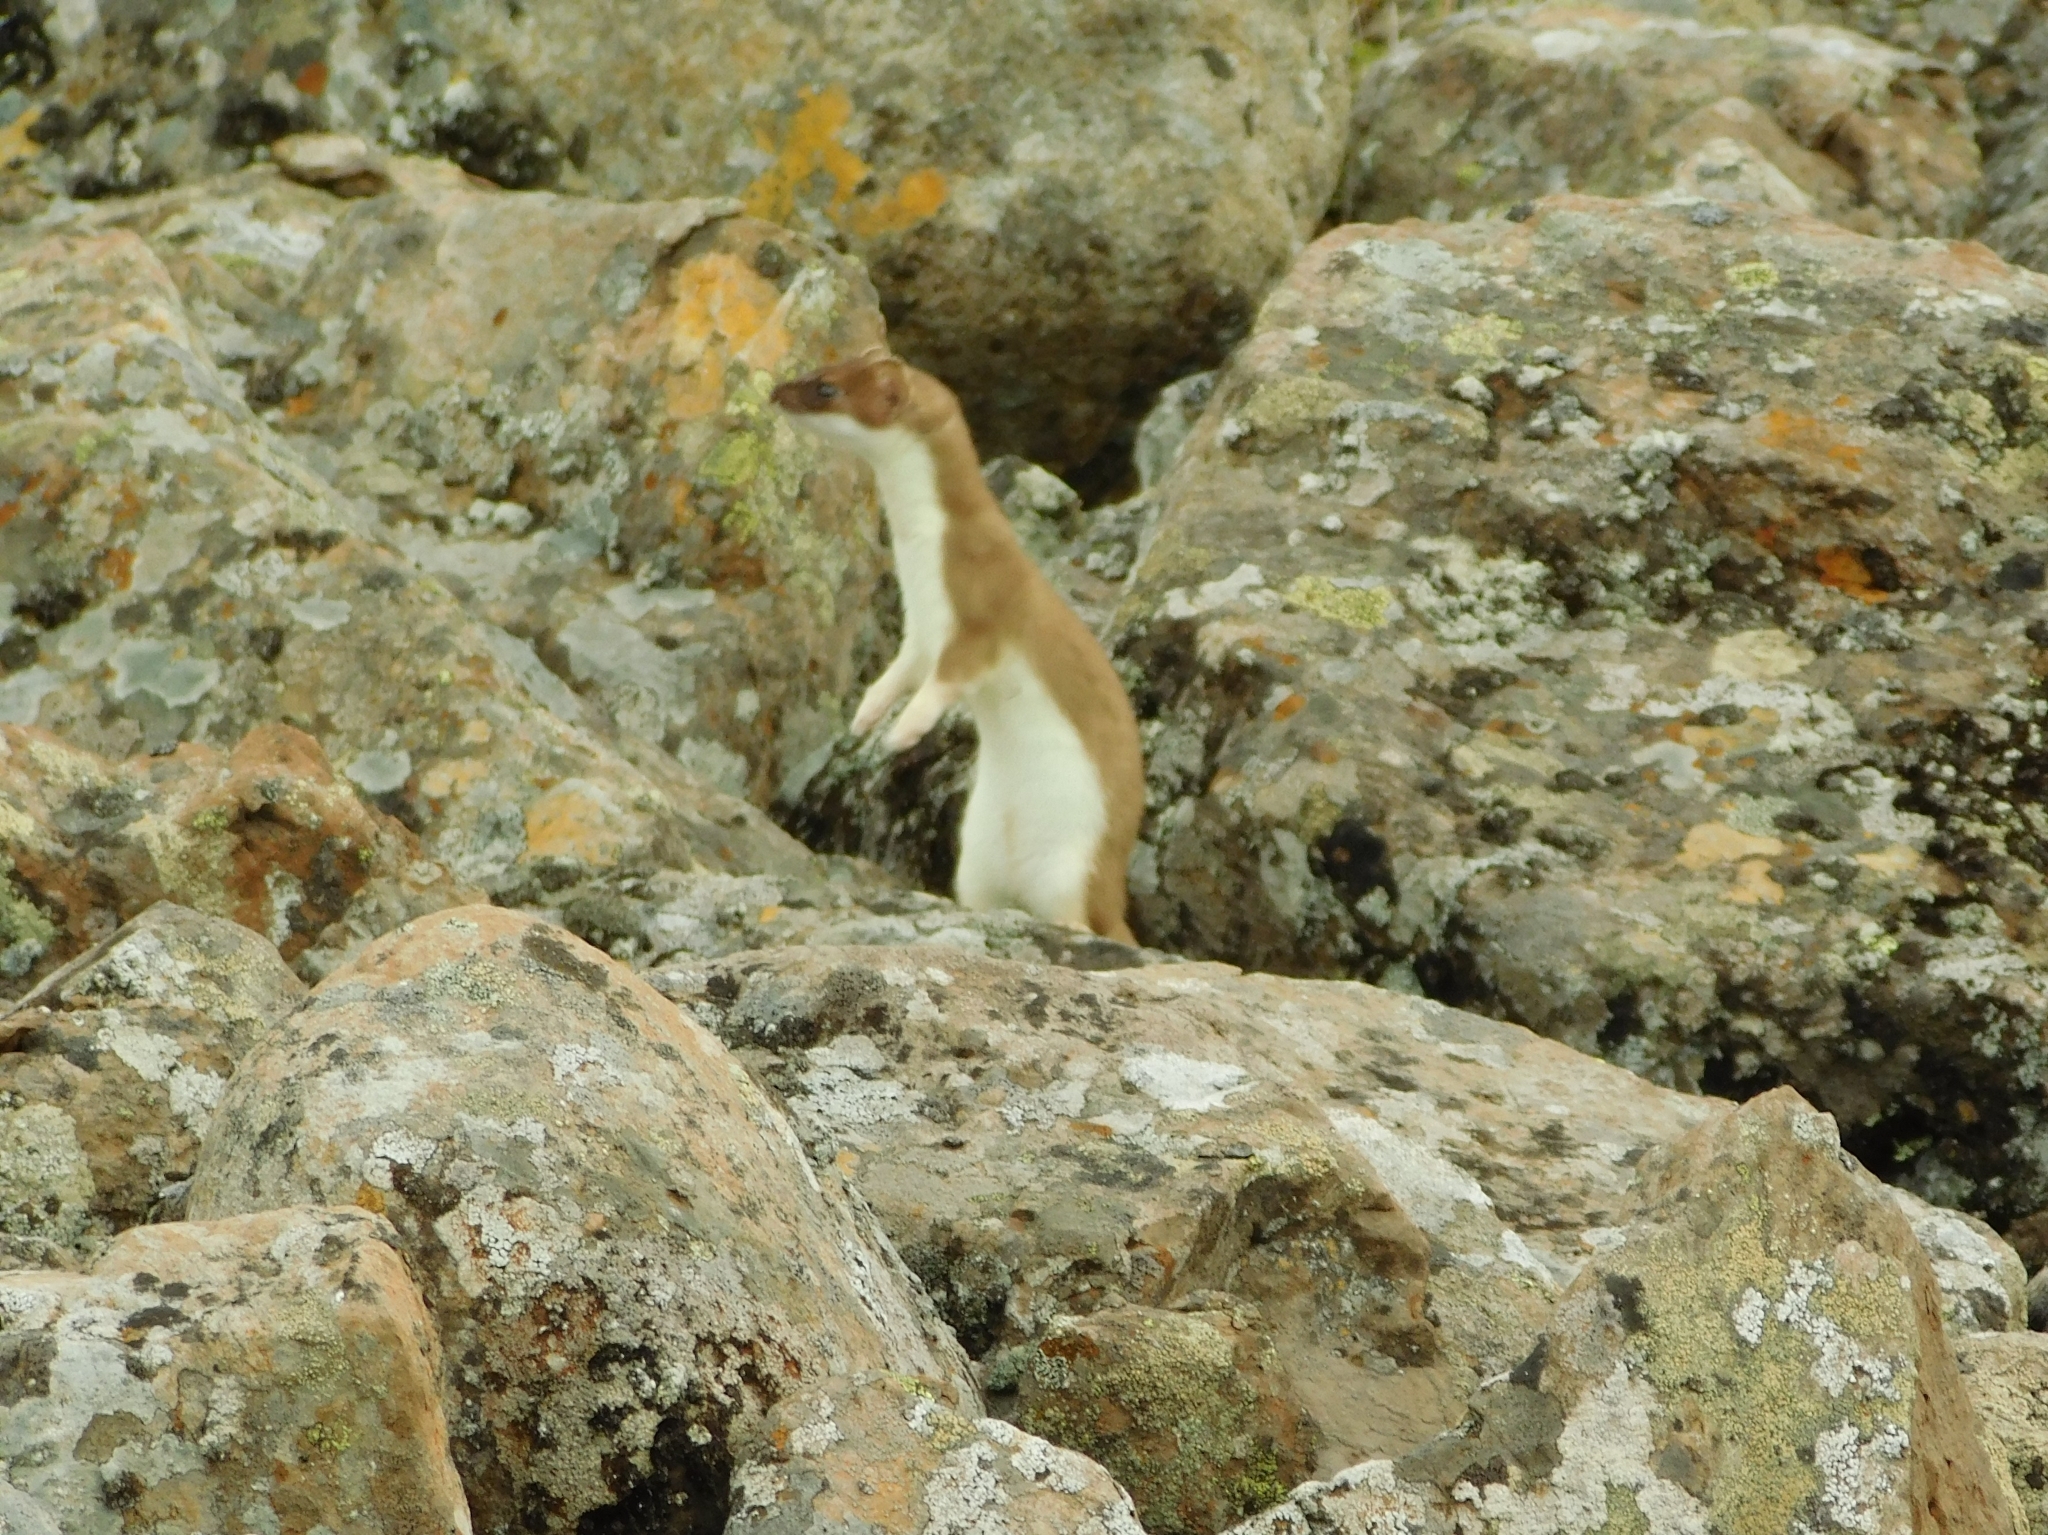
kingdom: Animalia
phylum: Chordata
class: Mammalia
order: Carnivora
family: Mustelidae
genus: Mustela
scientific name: Mustela erminea
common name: Stoat
